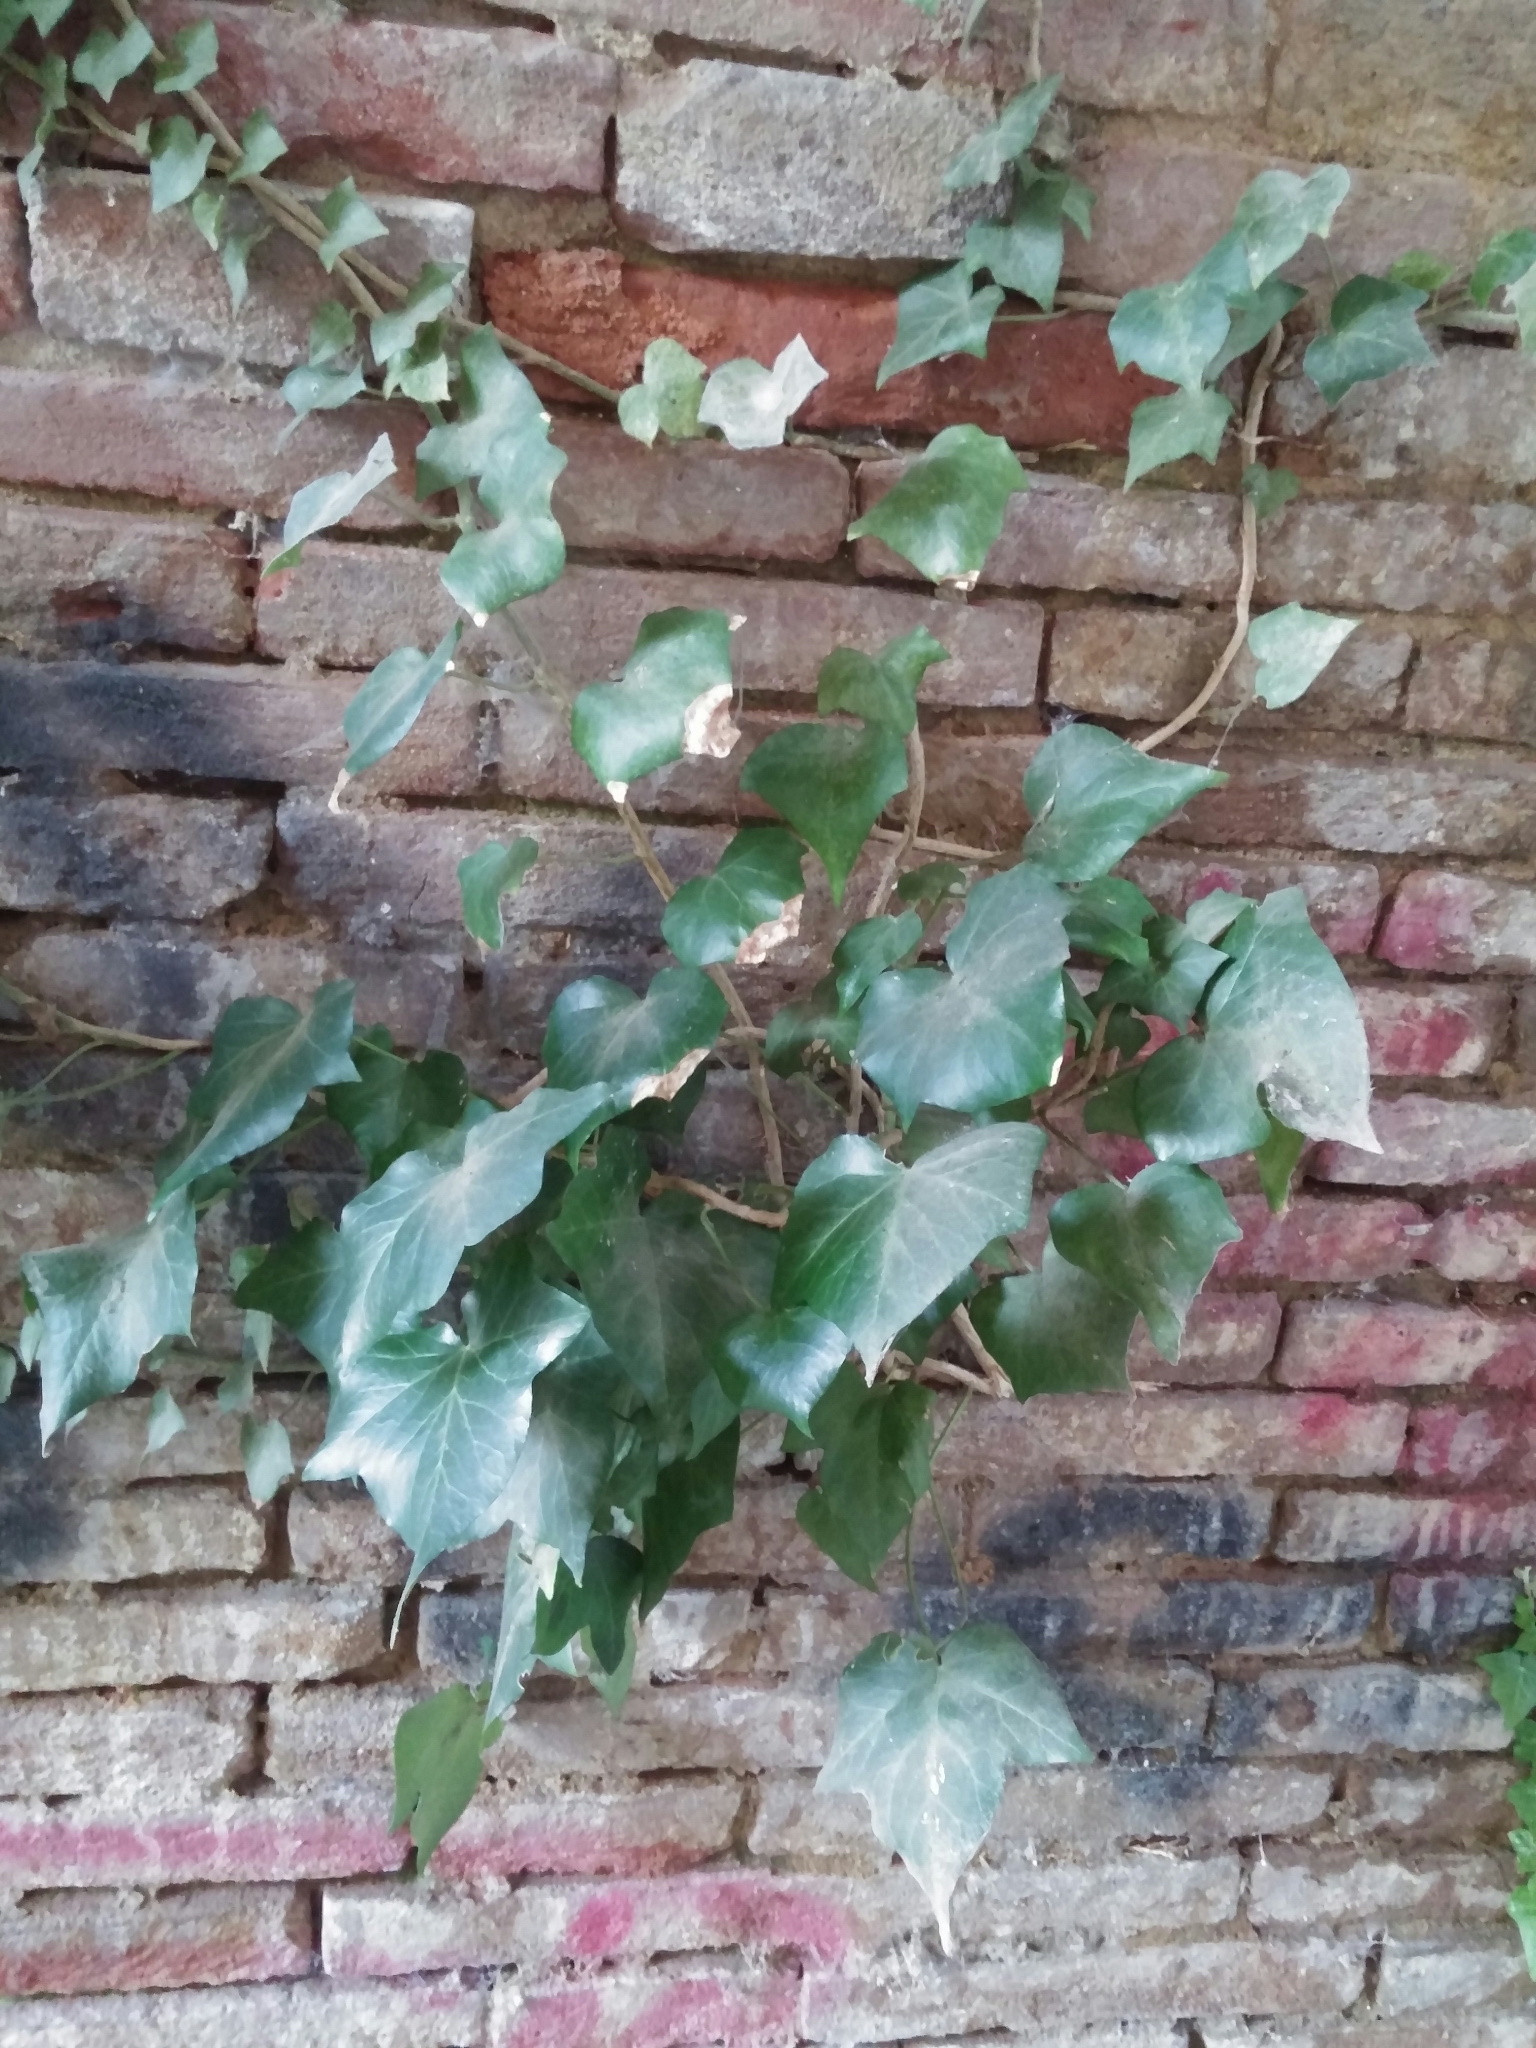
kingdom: Plantae
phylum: Tracheophyta
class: Magnoliopsida
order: Apiales
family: Araliaceae
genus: Hedera
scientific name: Hedera helix
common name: Ivy
